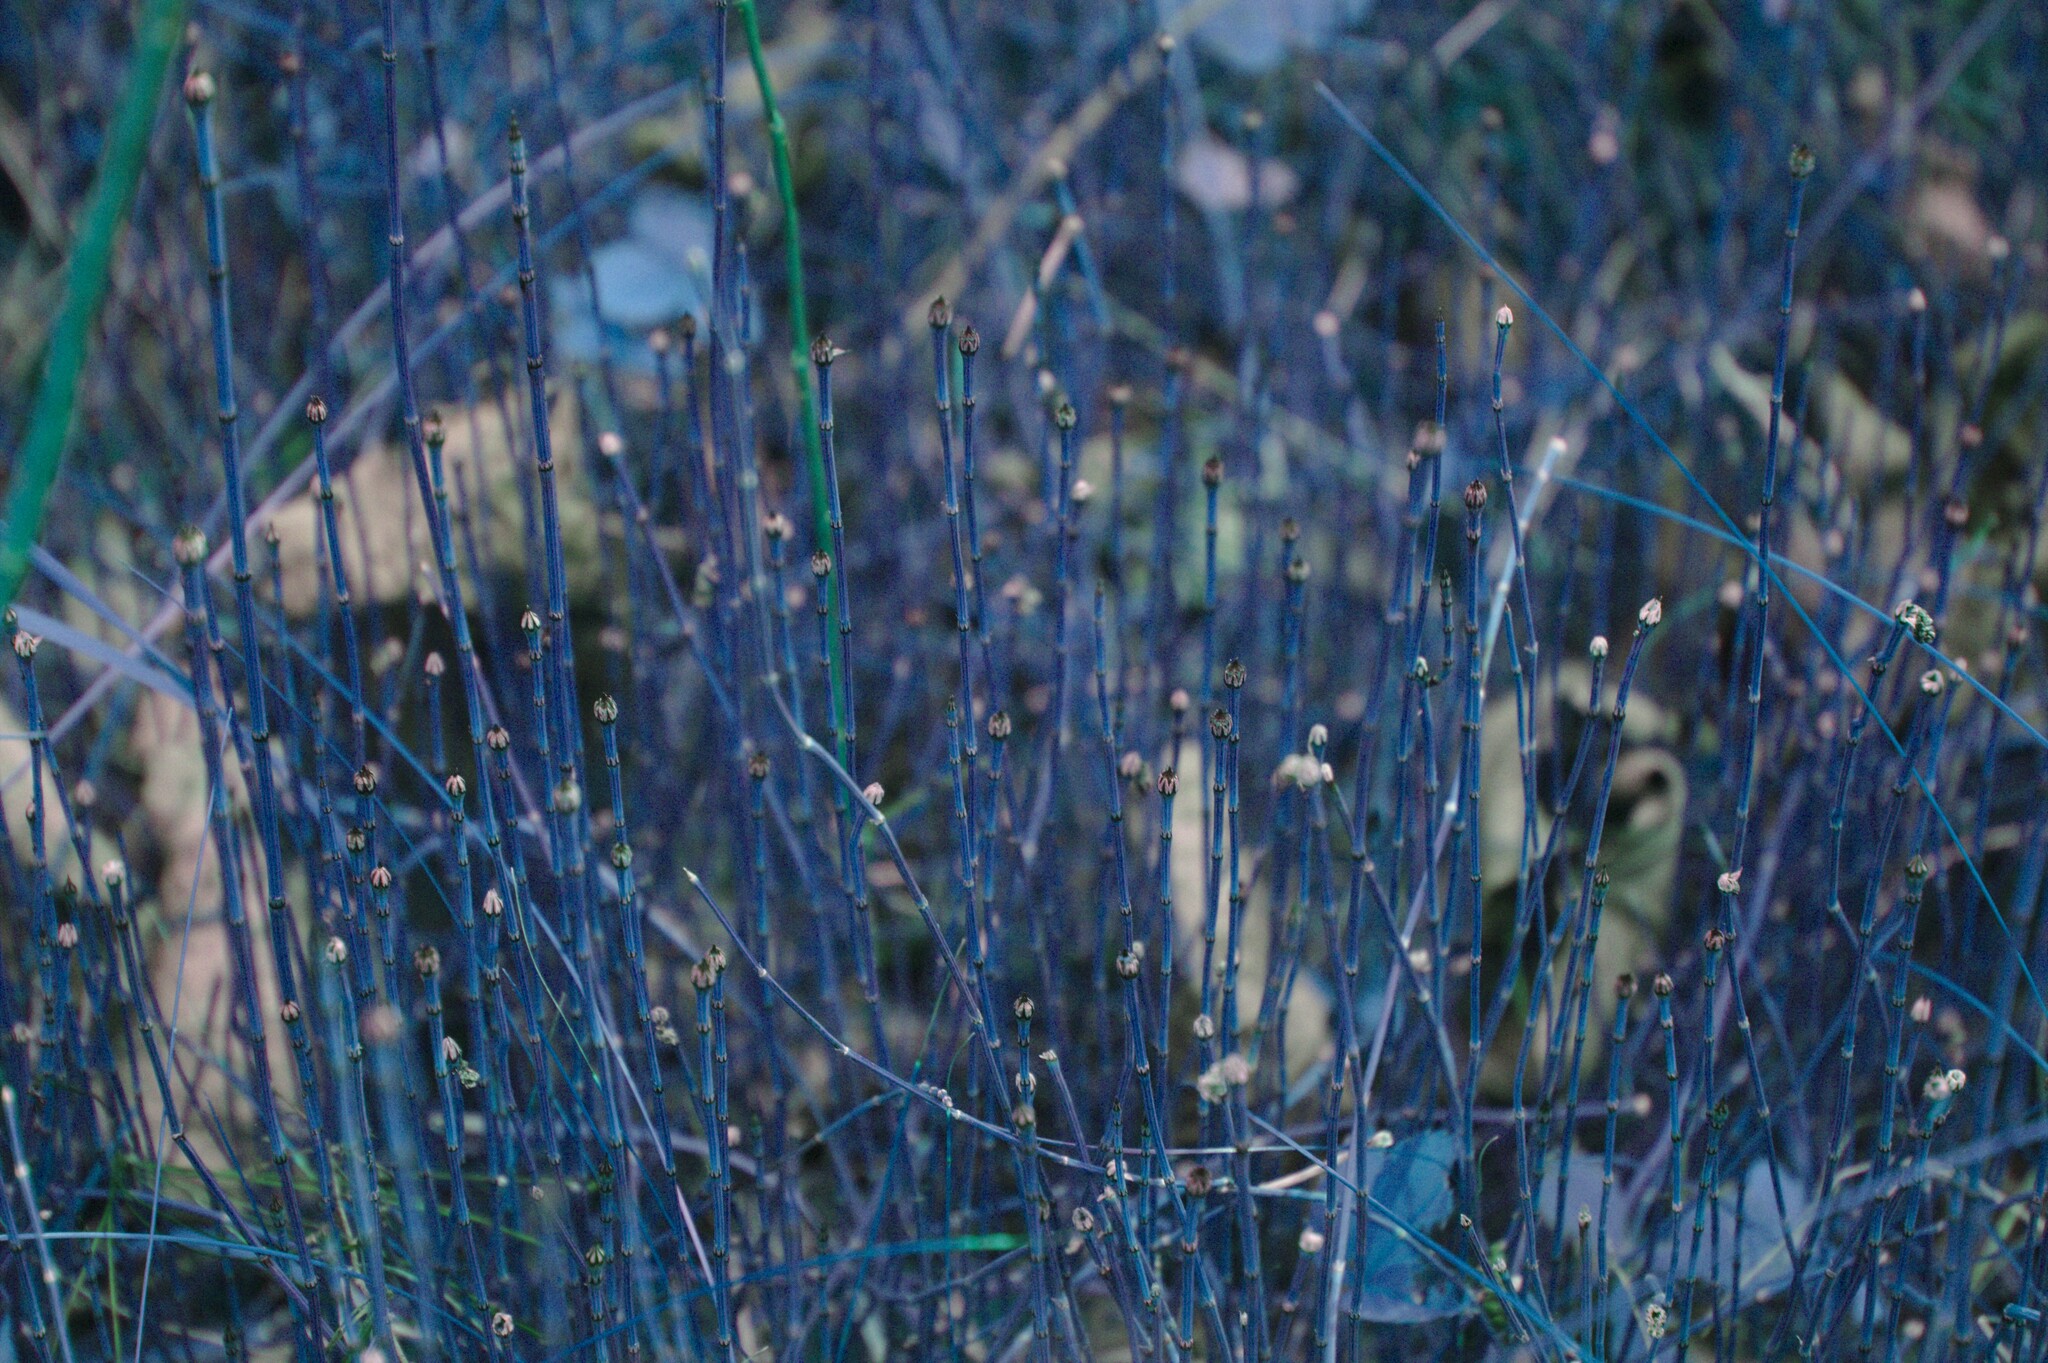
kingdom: Plantae
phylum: Tracheophyta
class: Polypodiopsida
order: Equisetales
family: Equisetaceae
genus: Equisetum
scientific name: Equisetum variegatum
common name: Variegated horsetail
